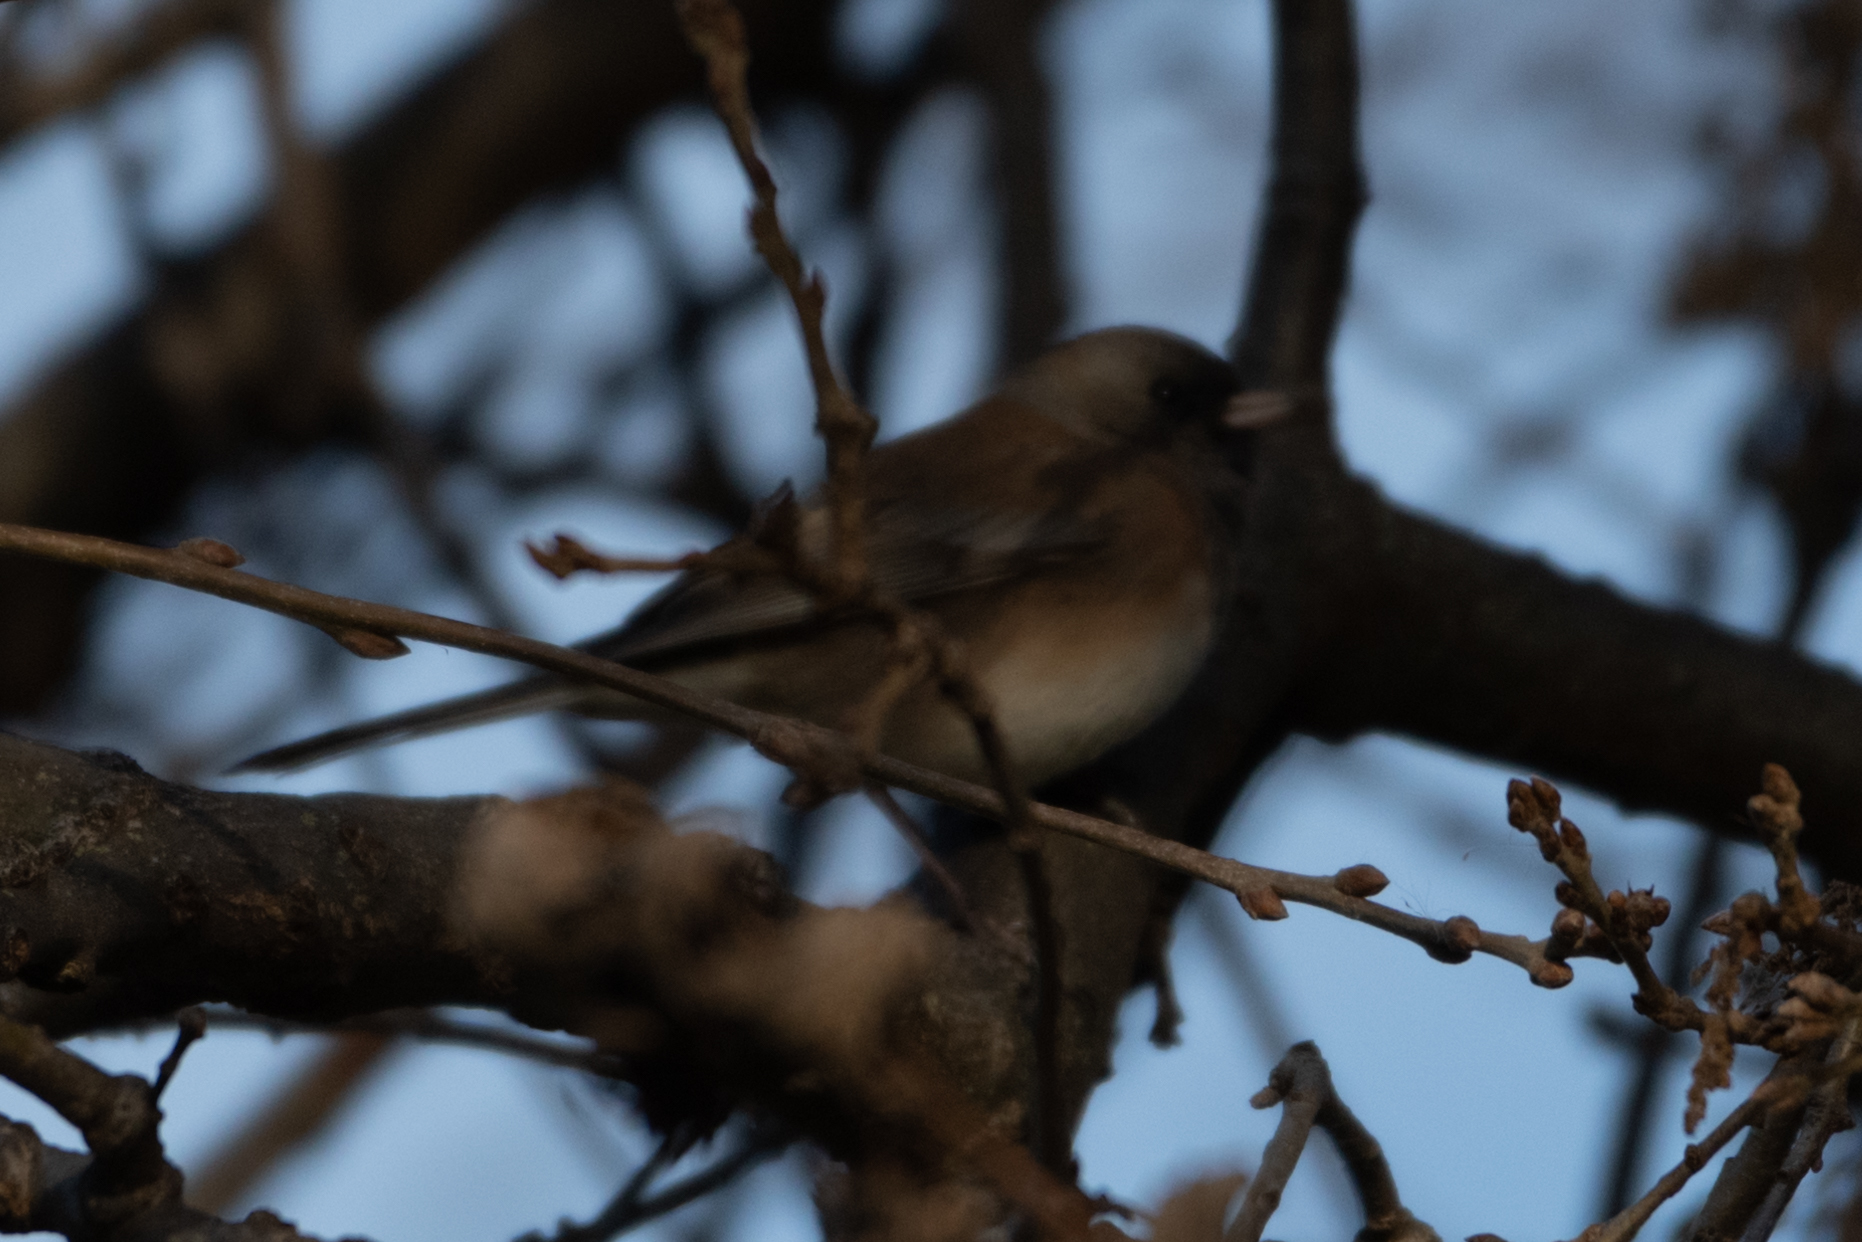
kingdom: Animalia
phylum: Chordata
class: Aves
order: Passeriformes
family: Passerellidae
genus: Junco
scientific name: Junco hyemalis
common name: Dark-eyed junco
